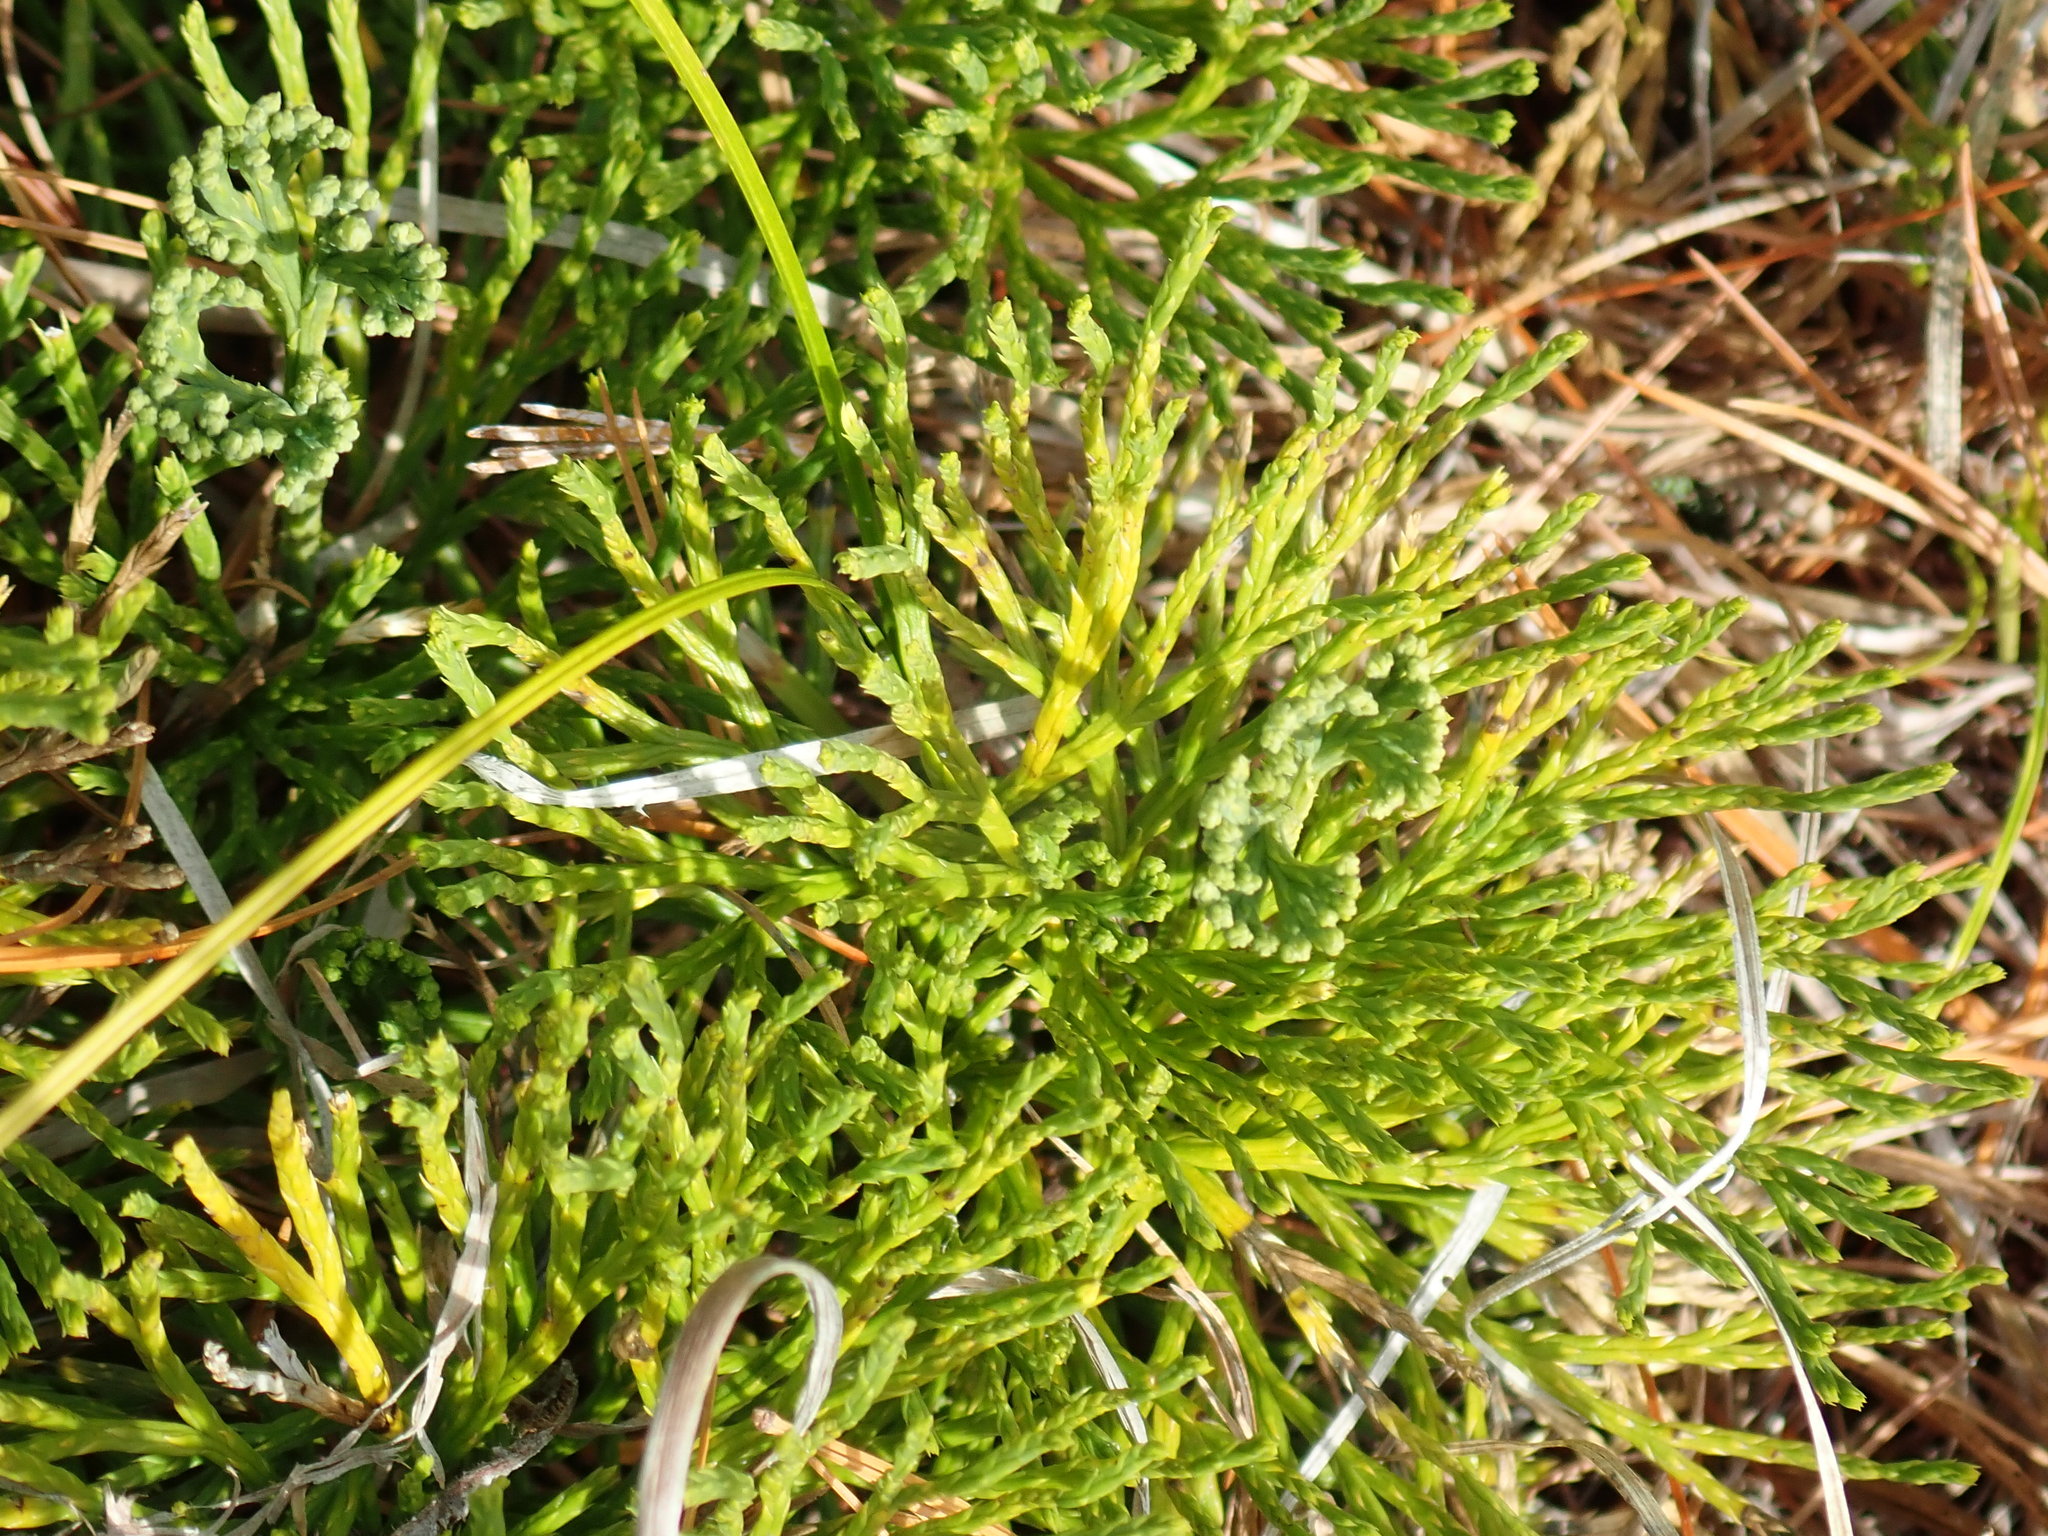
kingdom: Plantae
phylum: Tracheophyta
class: Lycopodiopsida
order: Lycopodiales
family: Lycopodiaceae
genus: Diphasiastrum
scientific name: Diphasiastrum tristachyum
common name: Blue ground-cedar
